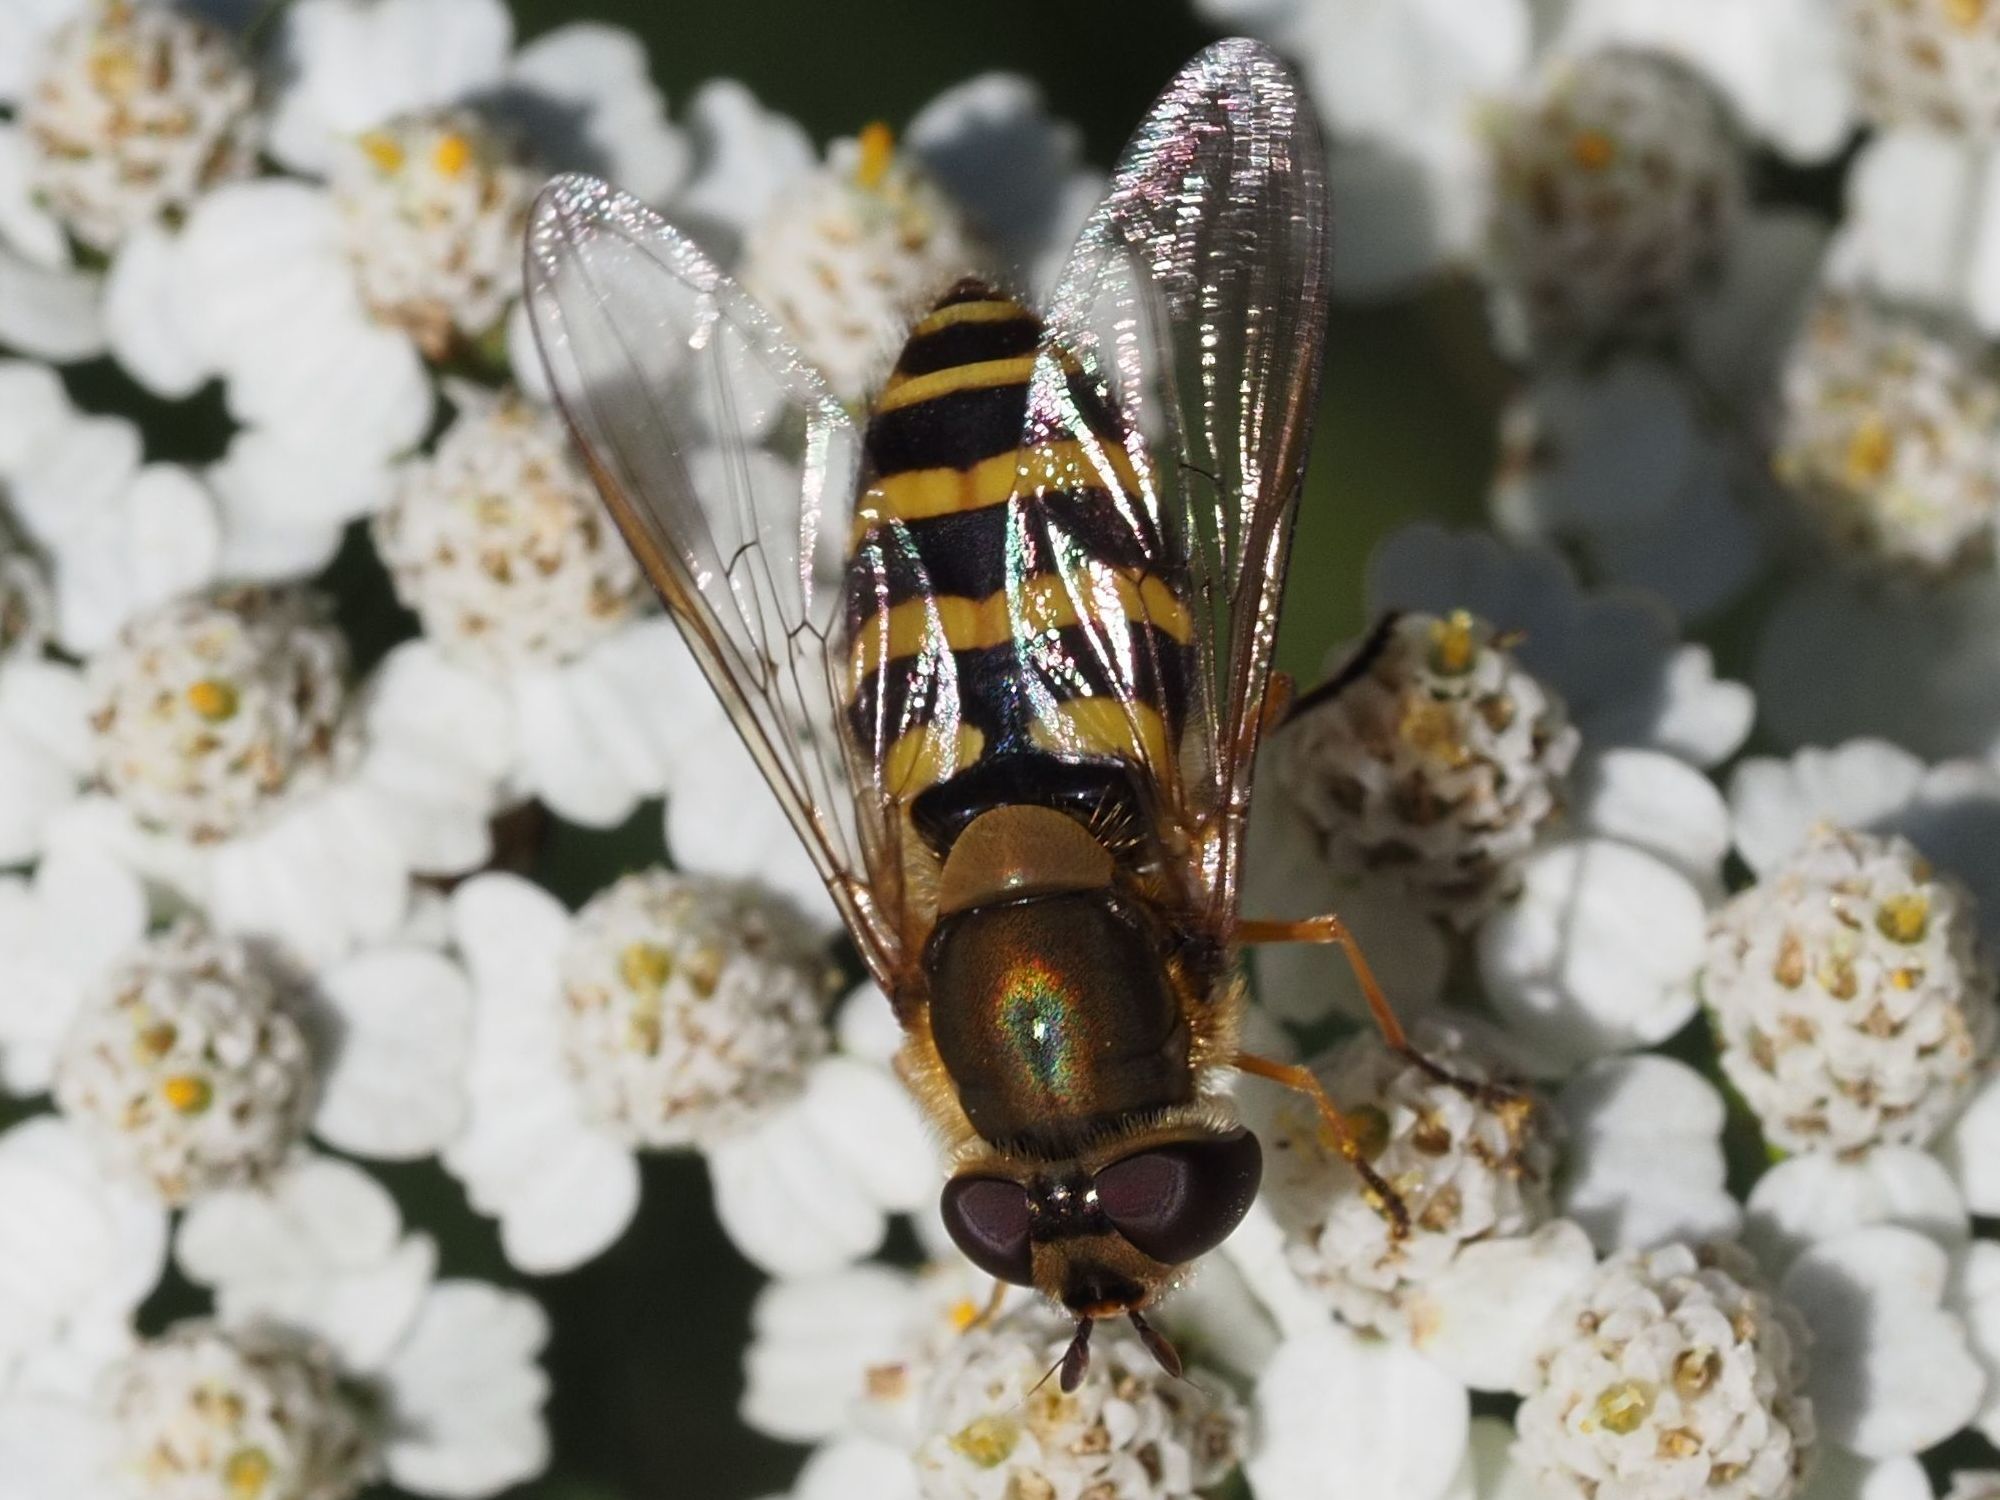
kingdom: Animalia
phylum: Arthropoda
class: Insecta
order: Diptera
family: Syrphidae
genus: Syrphus
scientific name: Syrphus torvus
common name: Hairy-eyed flower fly
